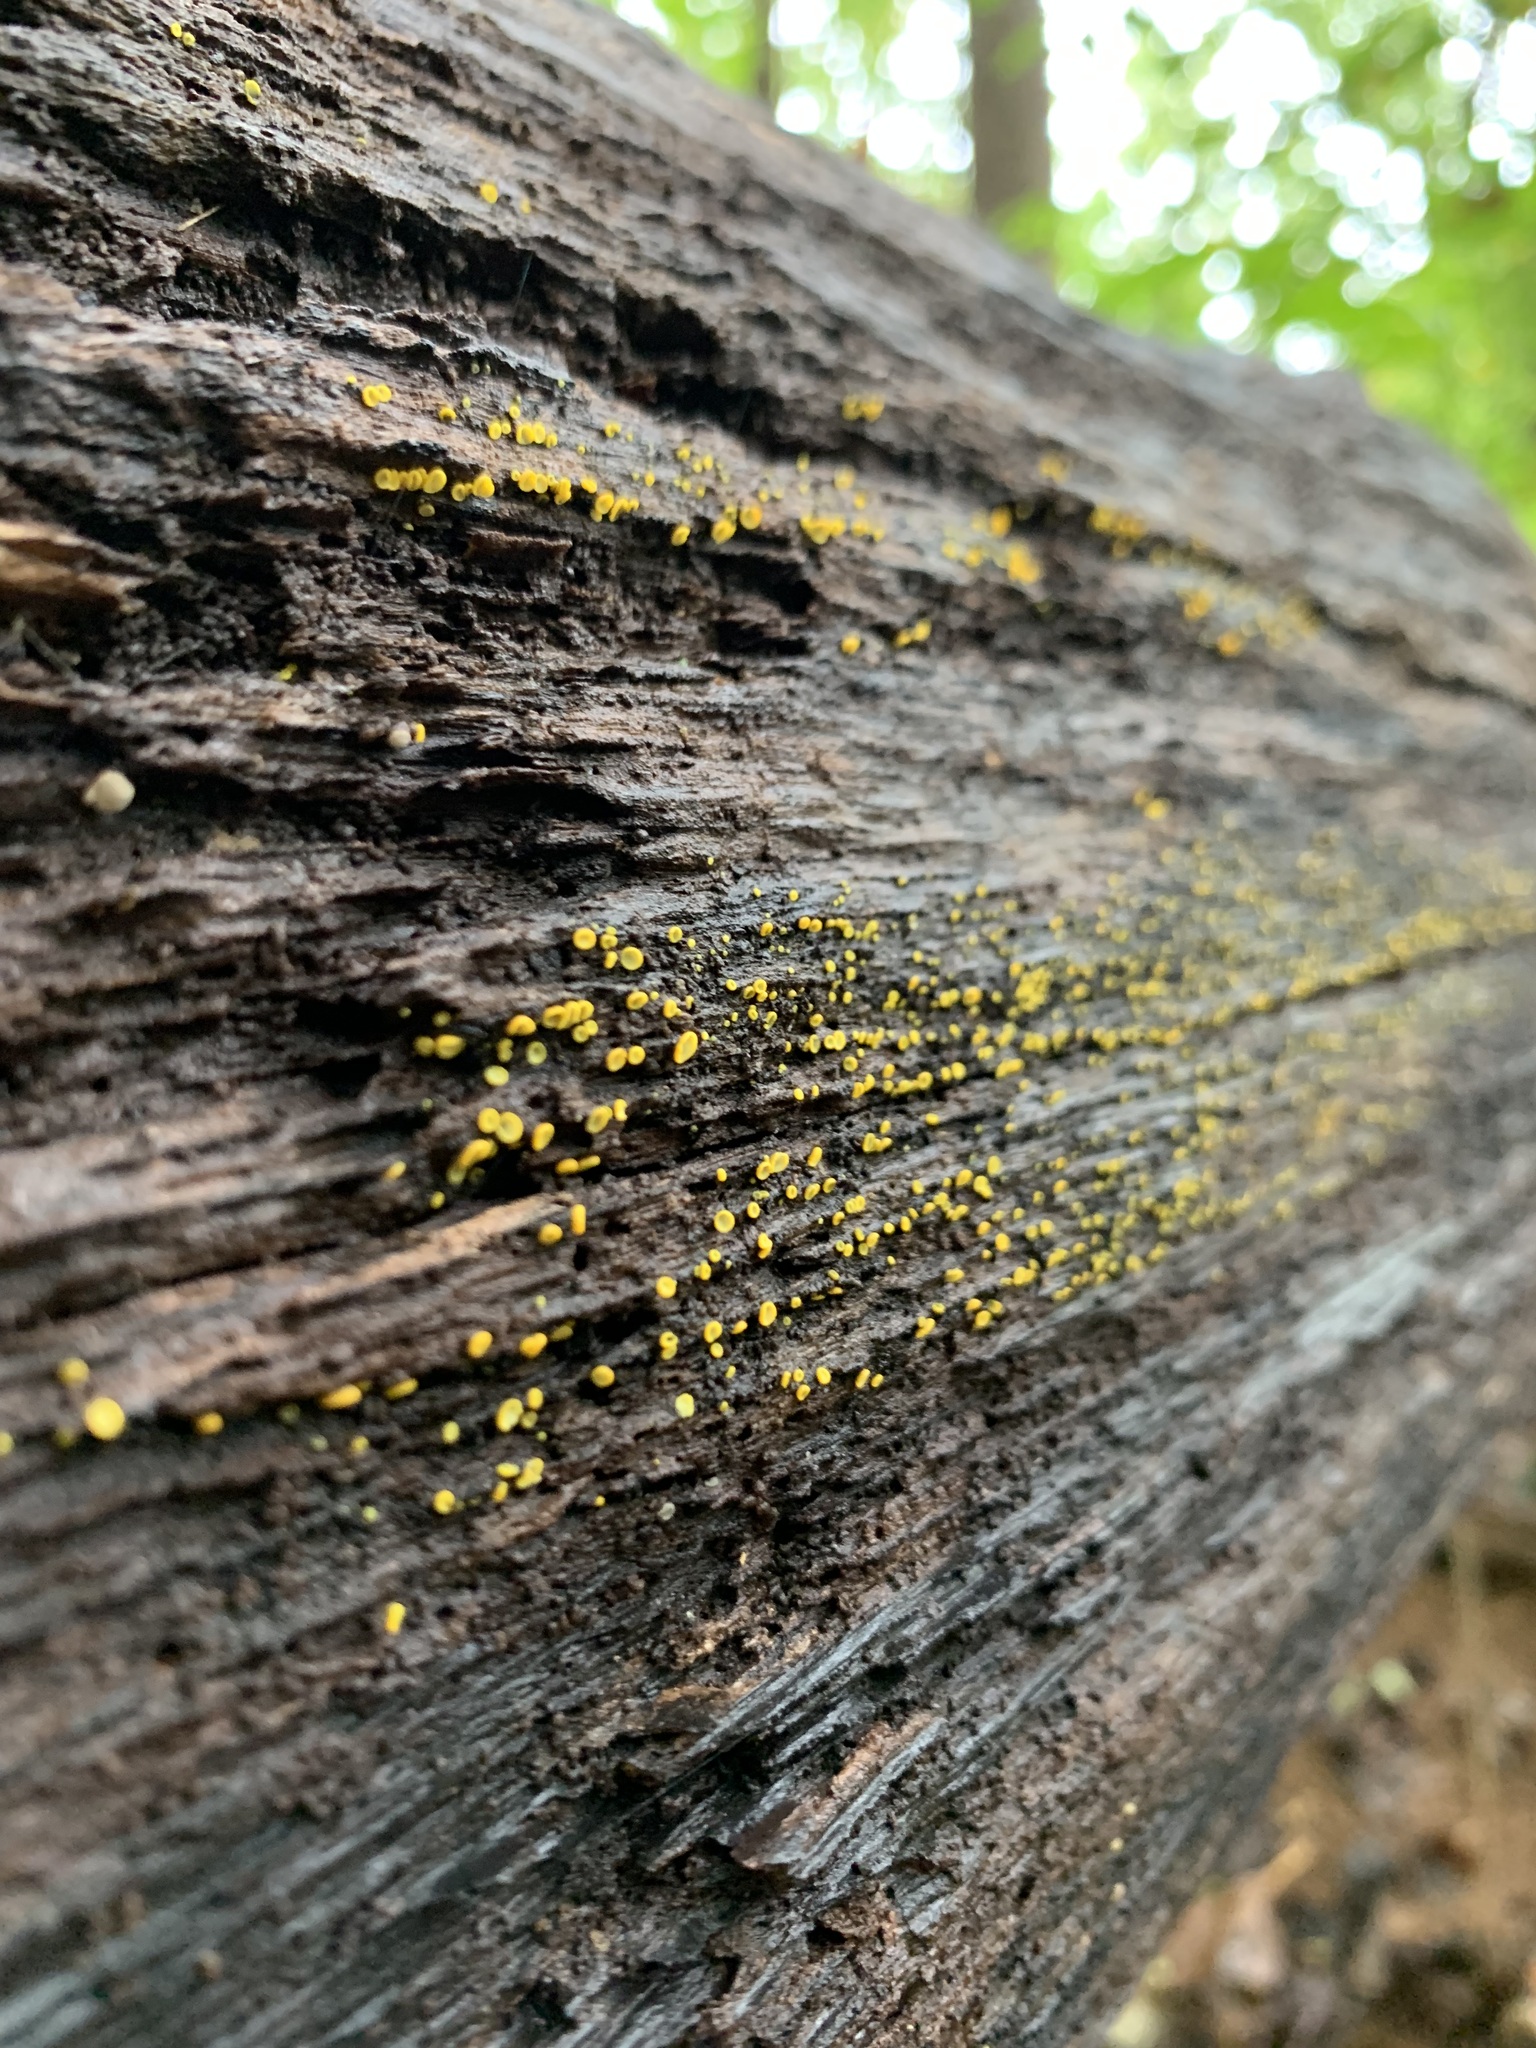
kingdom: Fungi
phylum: Ascomycota
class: Leotiomycetes
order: Helotiales
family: Chlorospleniaceae
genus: Chlorosplenium
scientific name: Chlorosplenium chlora
